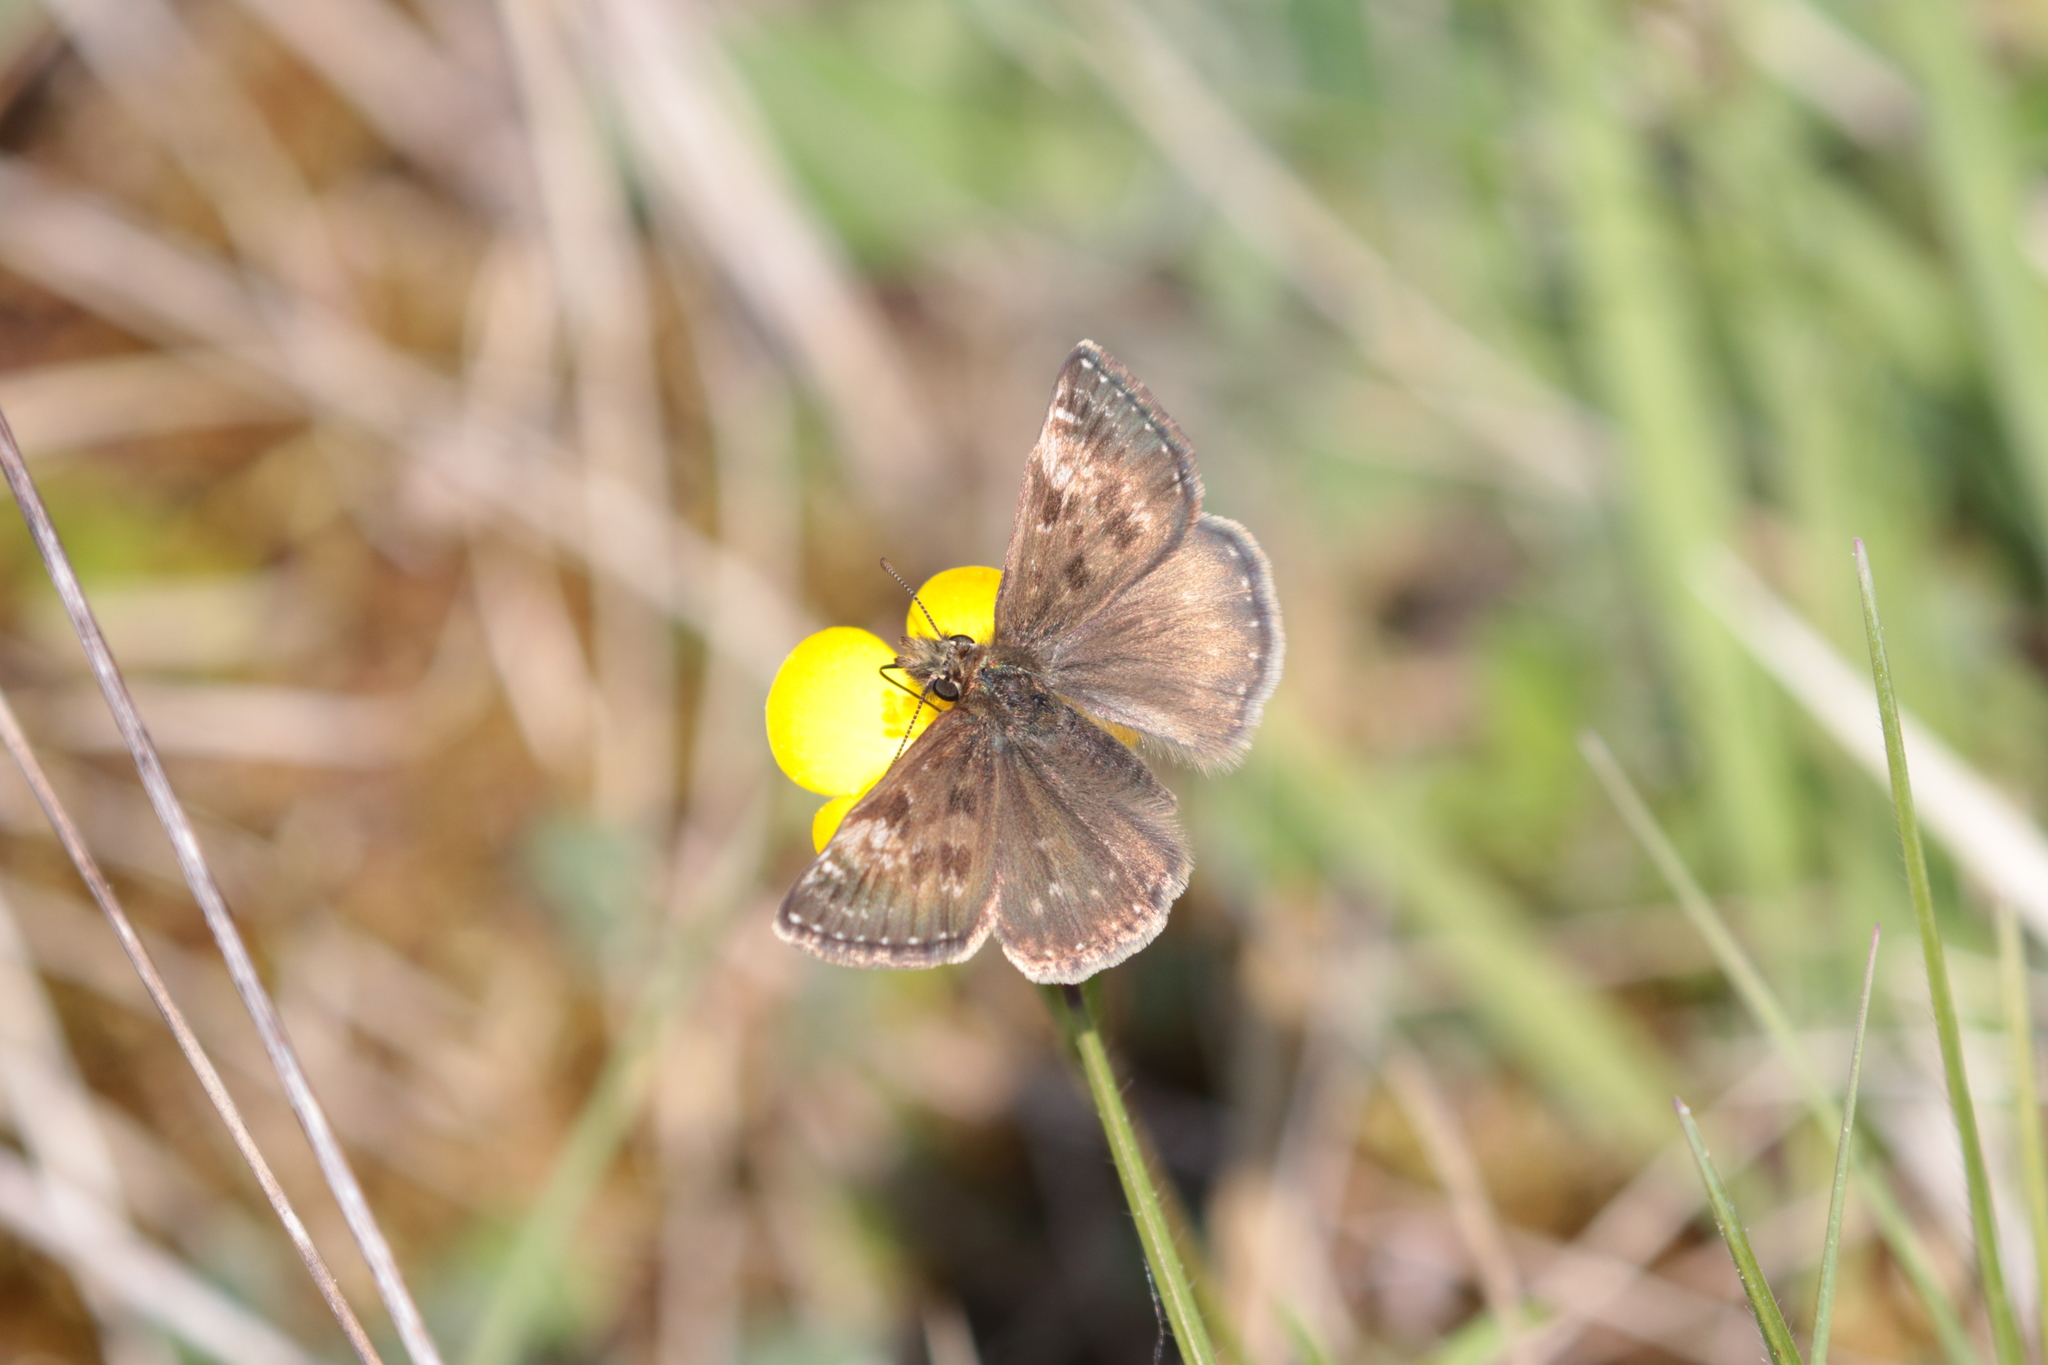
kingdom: Animalia
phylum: Arthropoda
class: Insecta
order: Lepidoptera
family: Hesperiidae
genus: Erynnis
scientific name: Erynnis tages
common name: Dingy skipper
